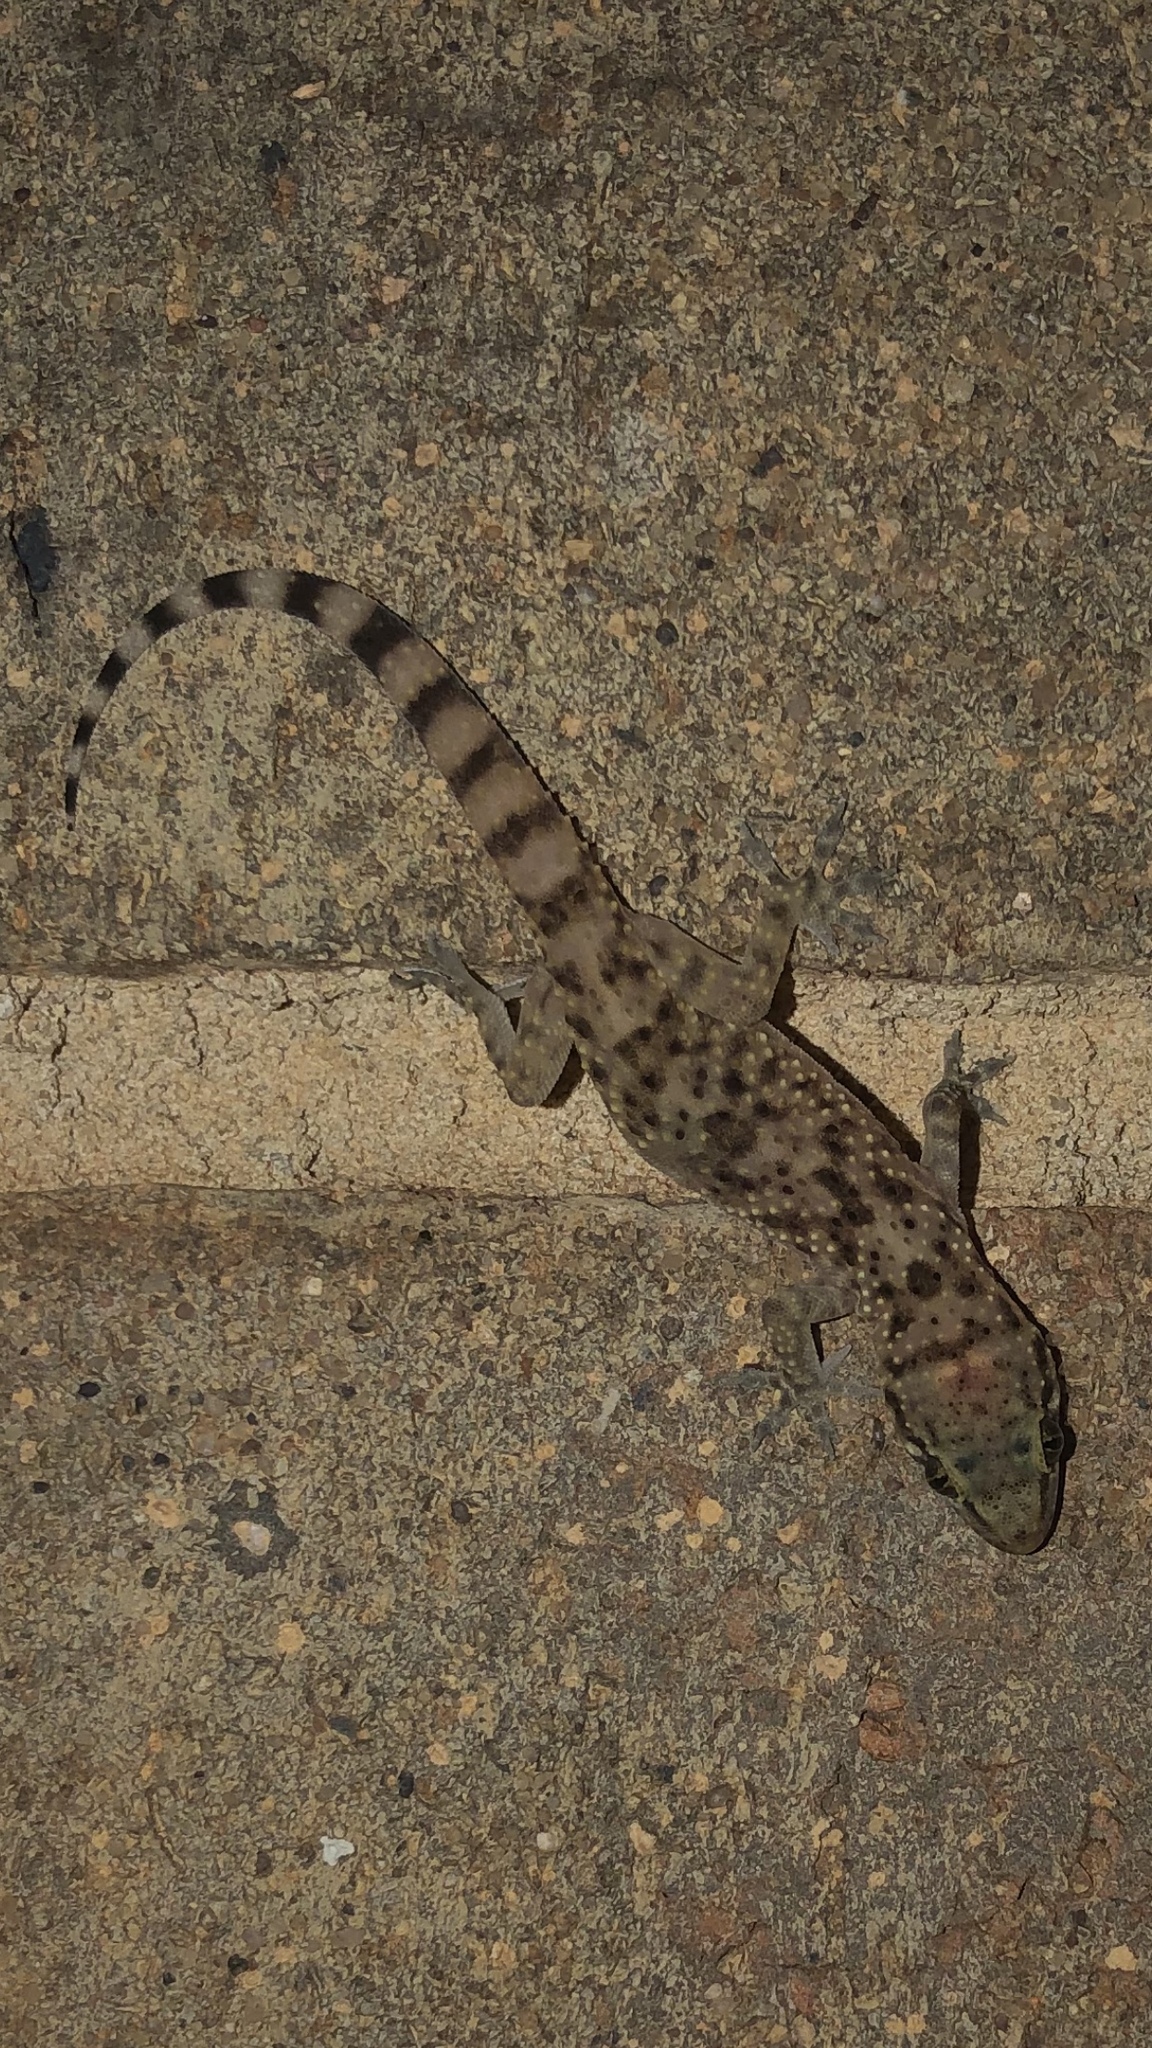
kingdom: Animalia
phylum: Chordata
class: Squamata
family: Gekkonidae
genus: Hemidactylus
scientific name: Hemidactylus turcicus
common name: Turkish gecko
